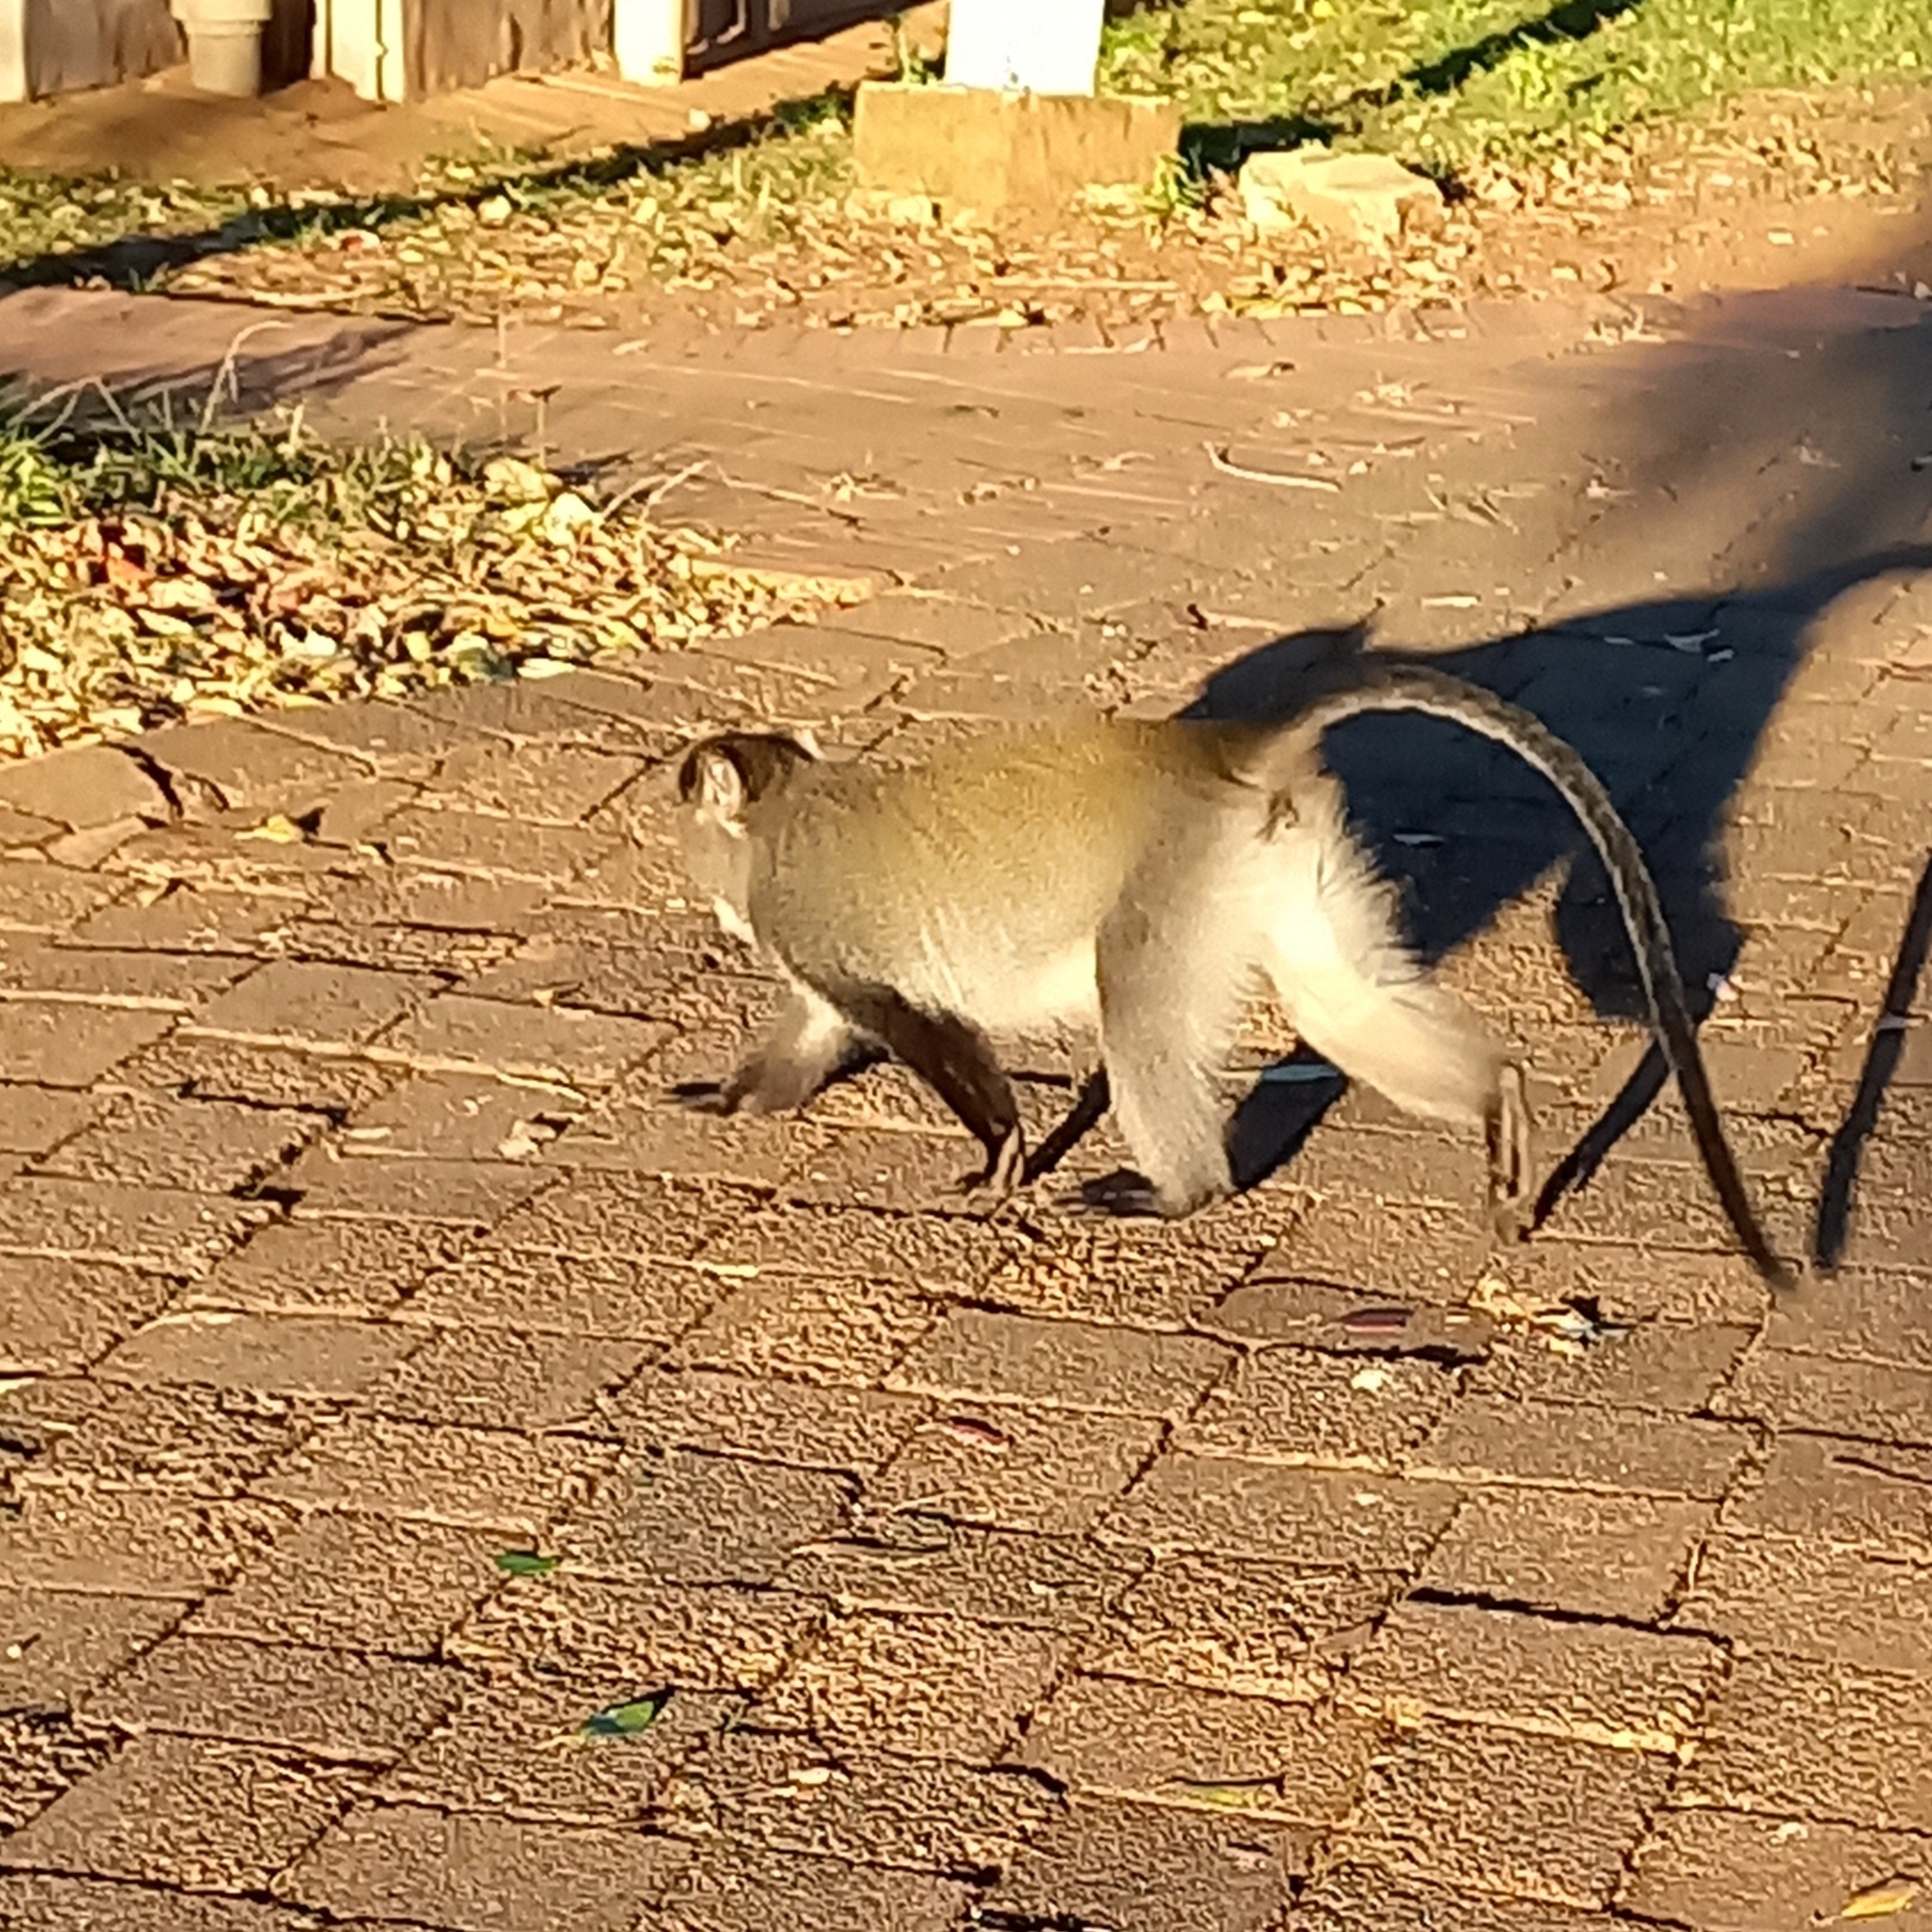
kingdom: Animalia
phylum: Chordata
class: Mammalia
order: Primates
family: Cercopithecidae
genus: Cercopithecus
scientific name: Cercopithecus mitis
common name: Blue monkey
